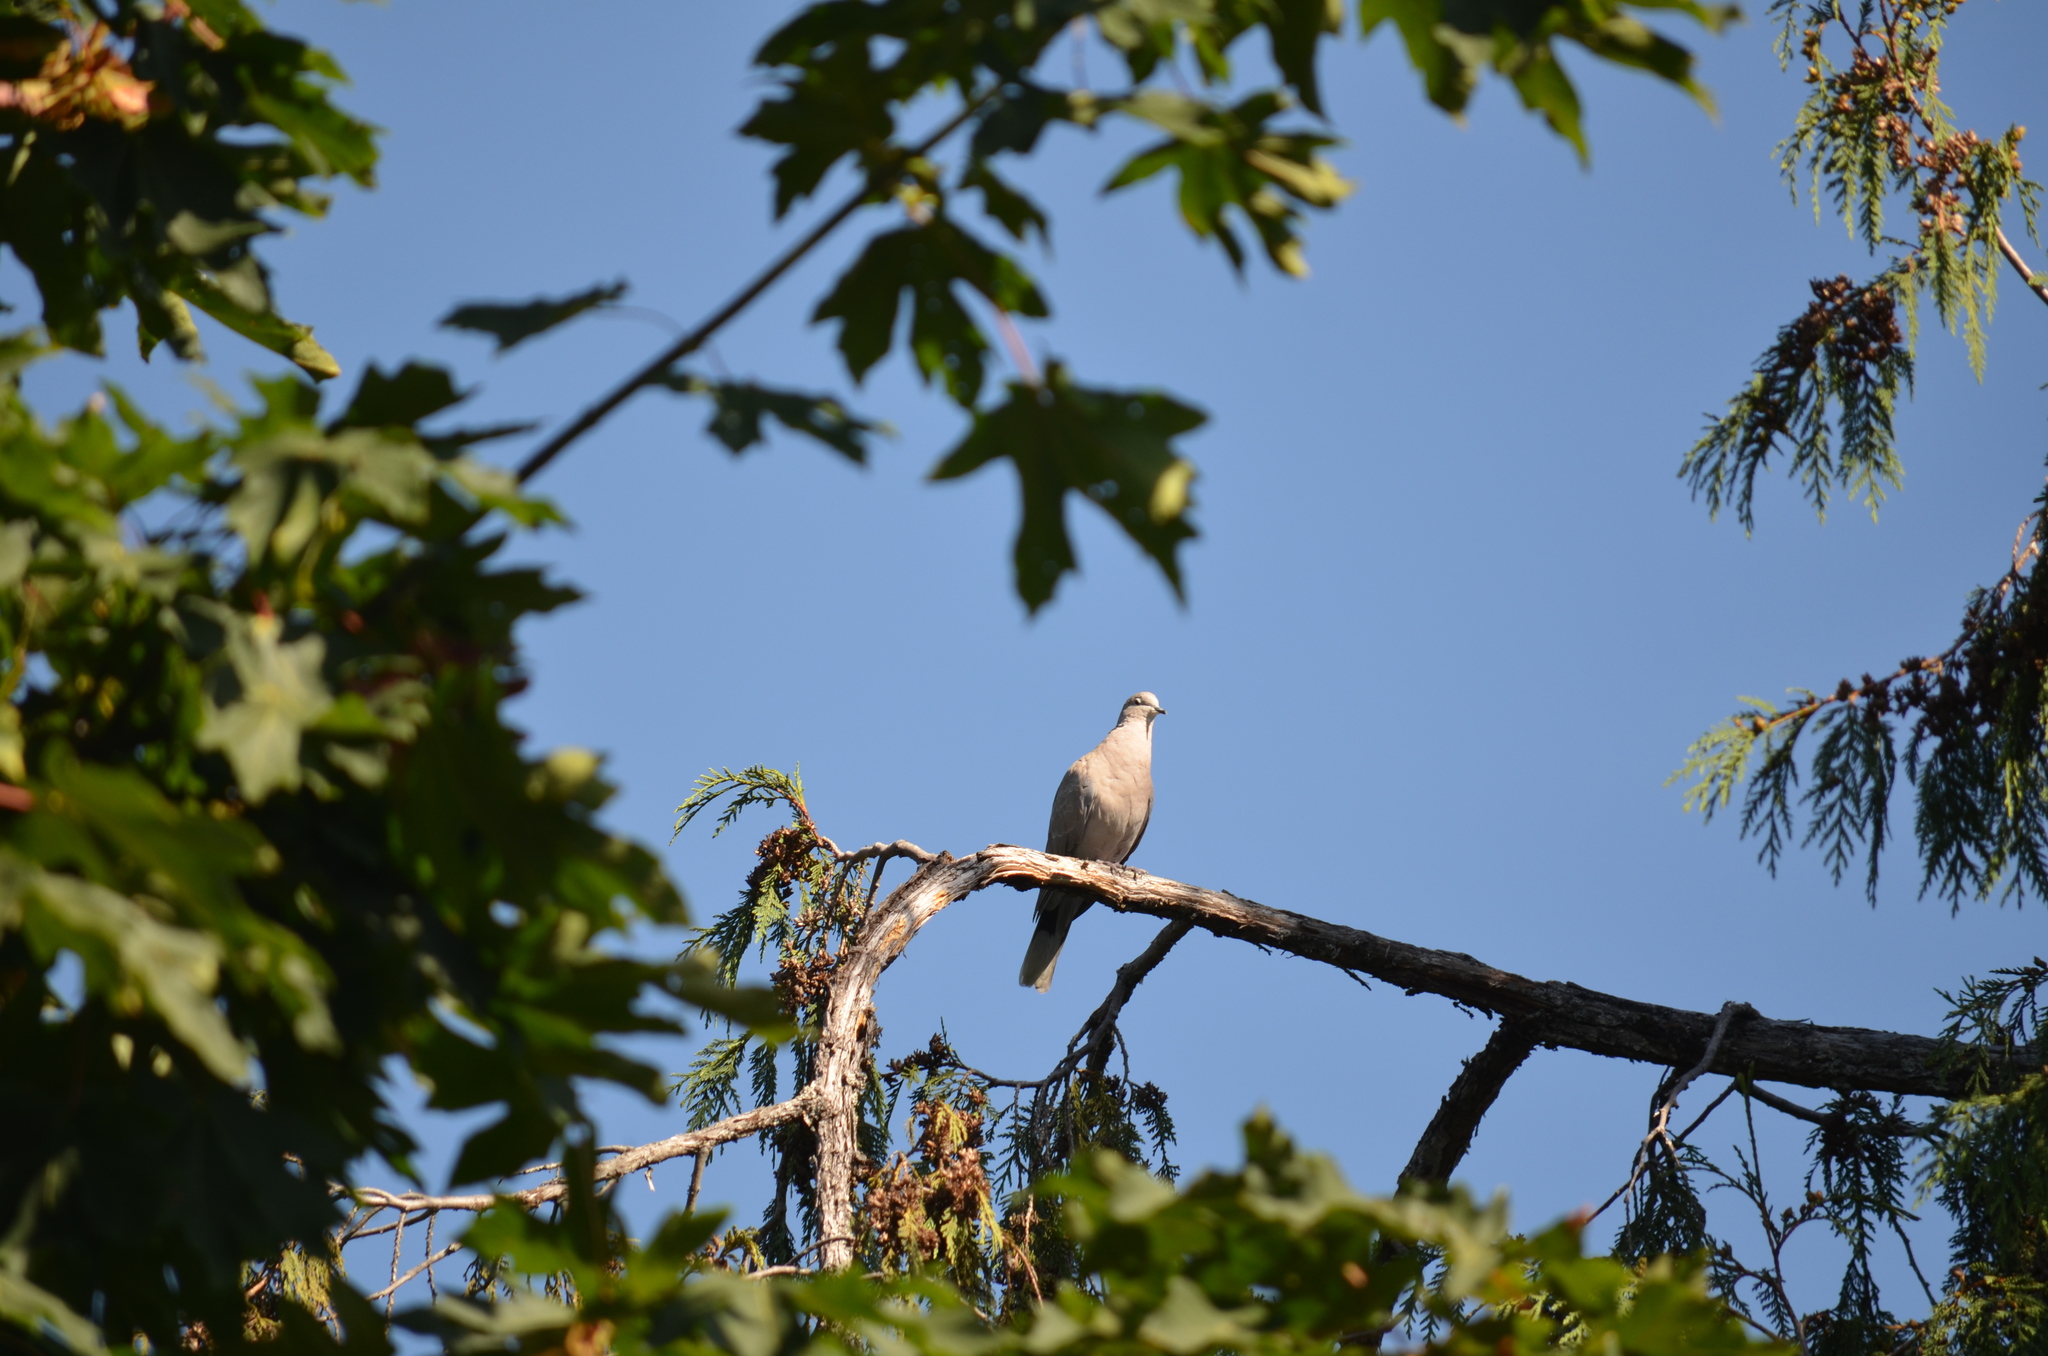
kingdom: Animalia
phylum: Chordata
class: Aves
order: Columbiformes
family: Columbidae
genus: Streptopelia
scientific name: Streptopelia decaocto
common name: Eurasian collared dove
